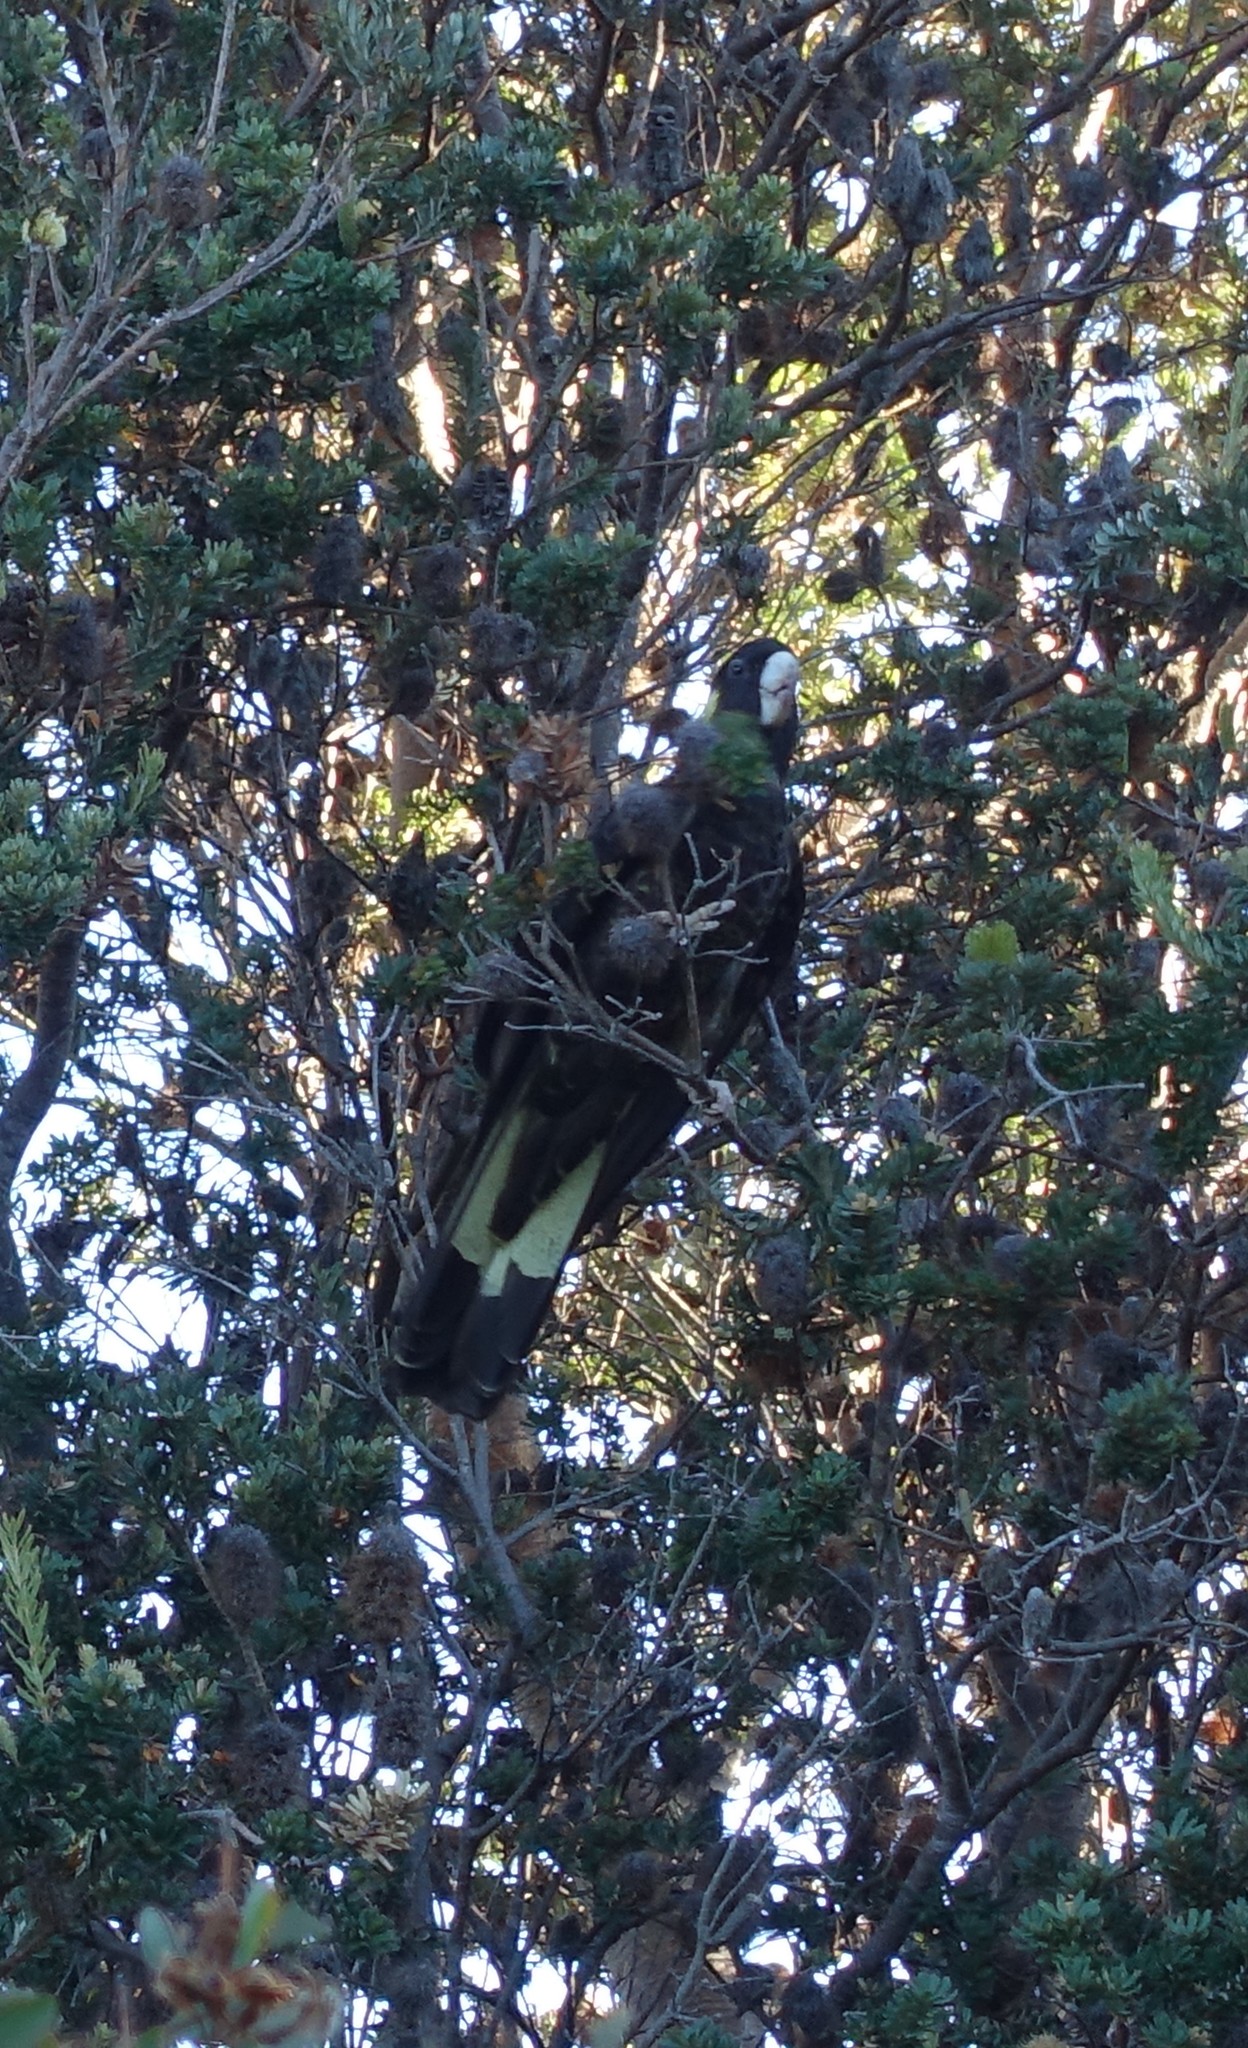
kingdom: Animalia
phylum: Chordata
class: Aves
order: Psittaciformes
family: Cacatuidae
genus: Zanda
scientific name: Zanda funerea
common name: Yellow-tailed black-cockatoo
